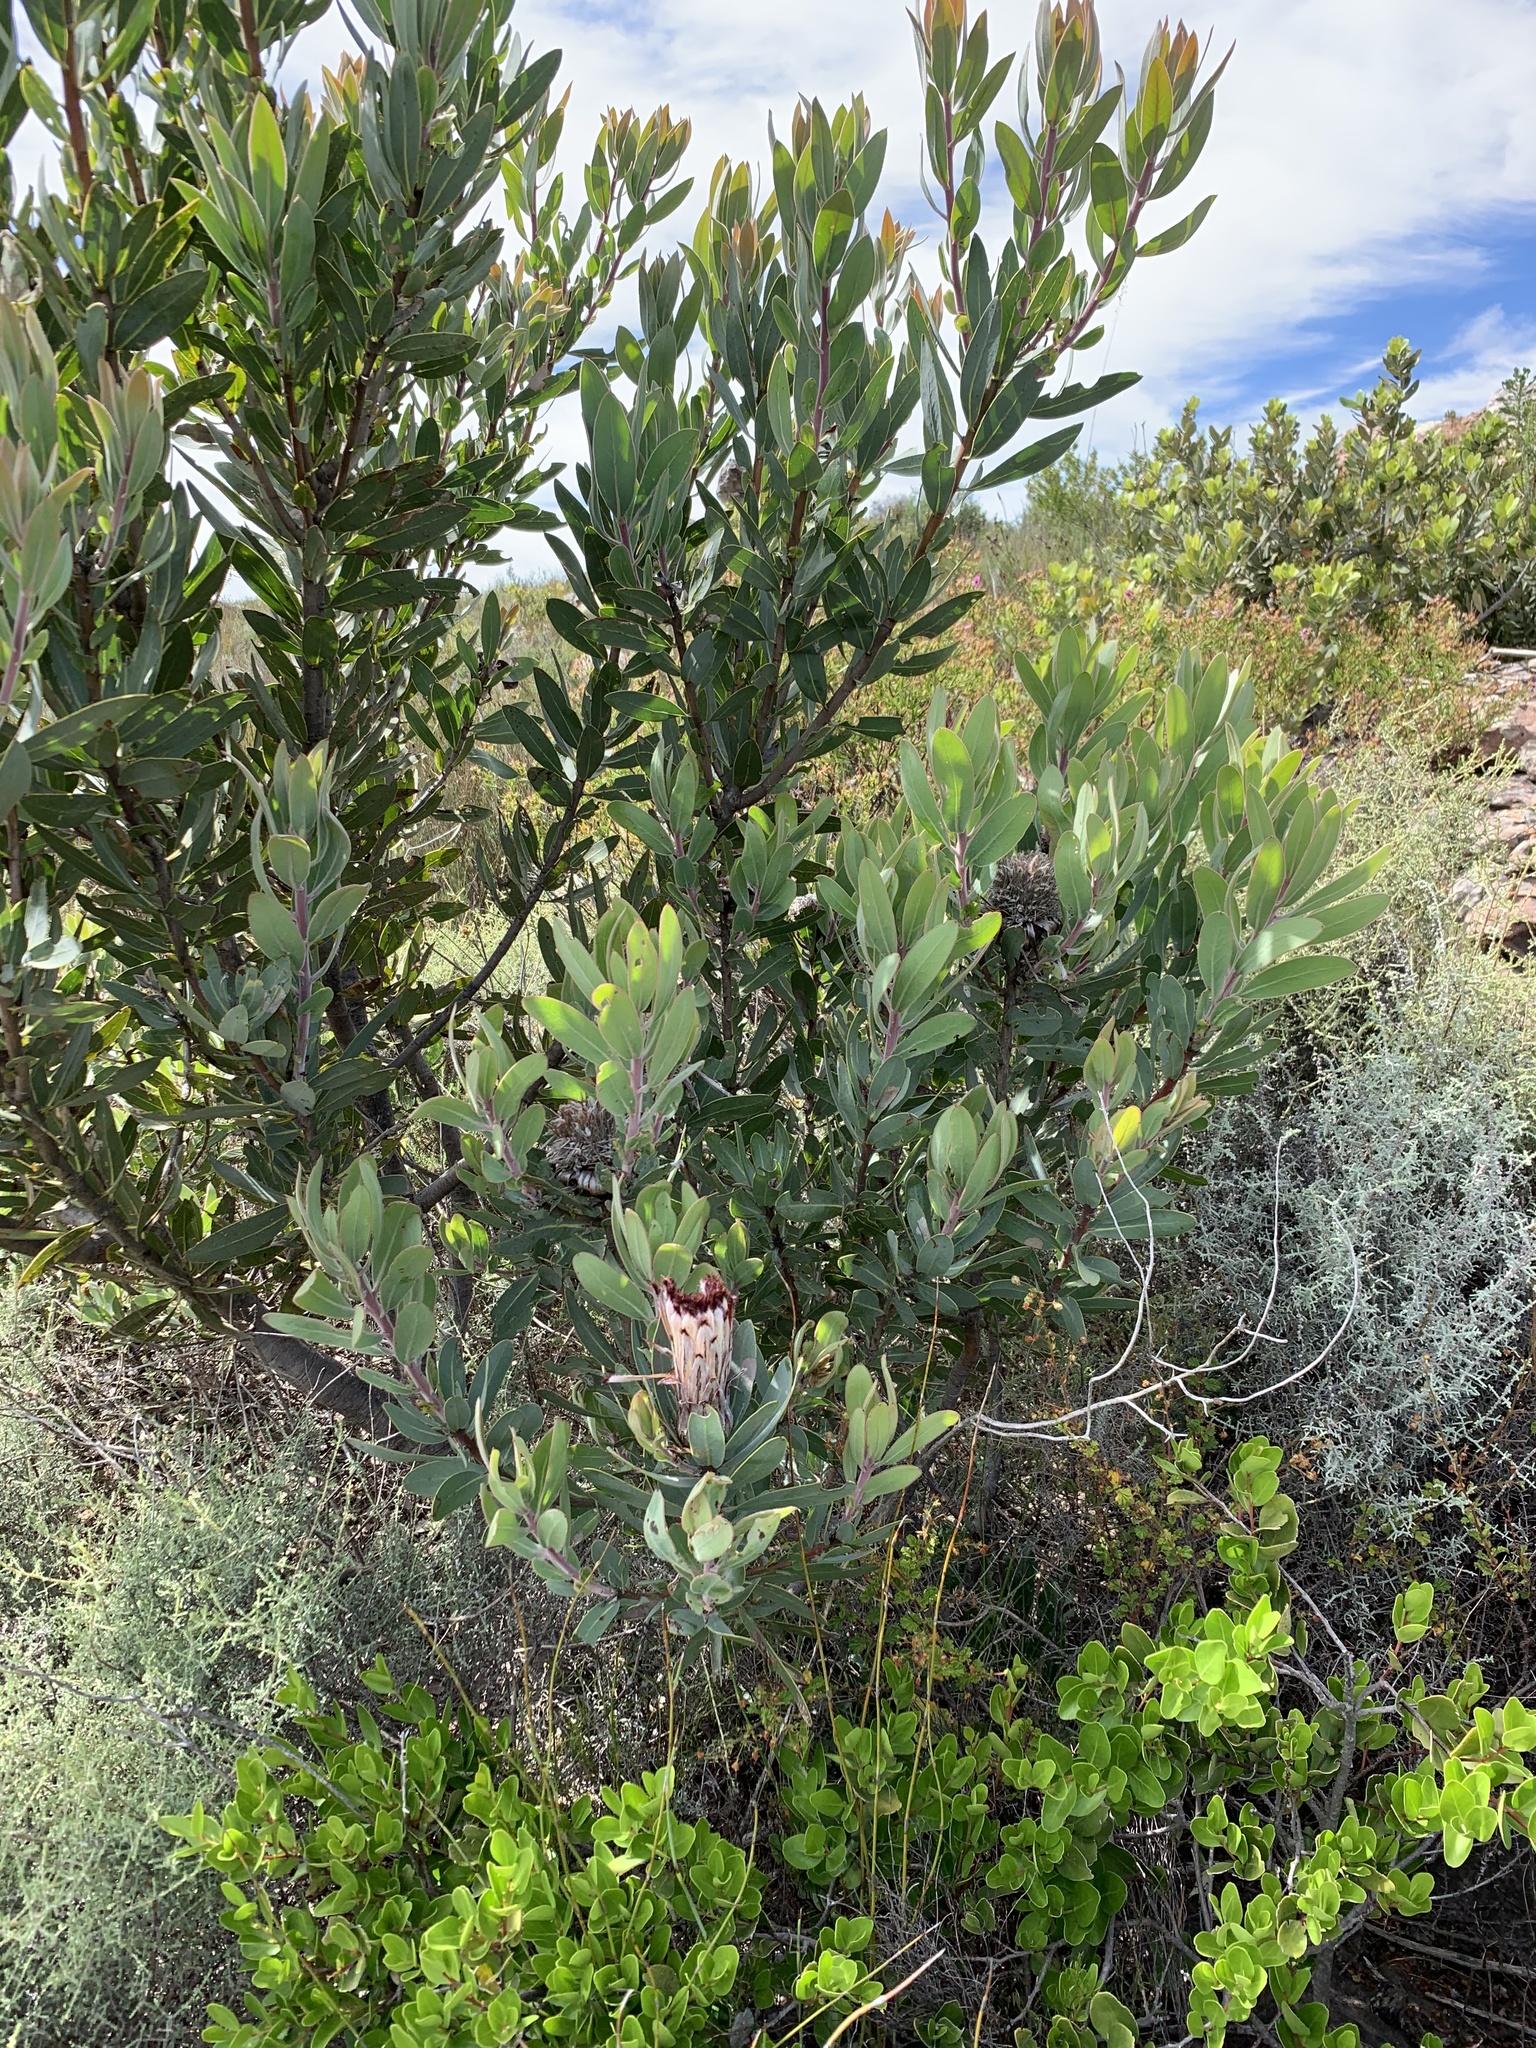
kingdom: Plantae
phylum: Tracheophyta
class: Magnoliopsida
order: Proteales
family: Proteaceae
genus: Protea
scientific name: Protea laurifolia
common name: Grey-leaf sugarbsh
